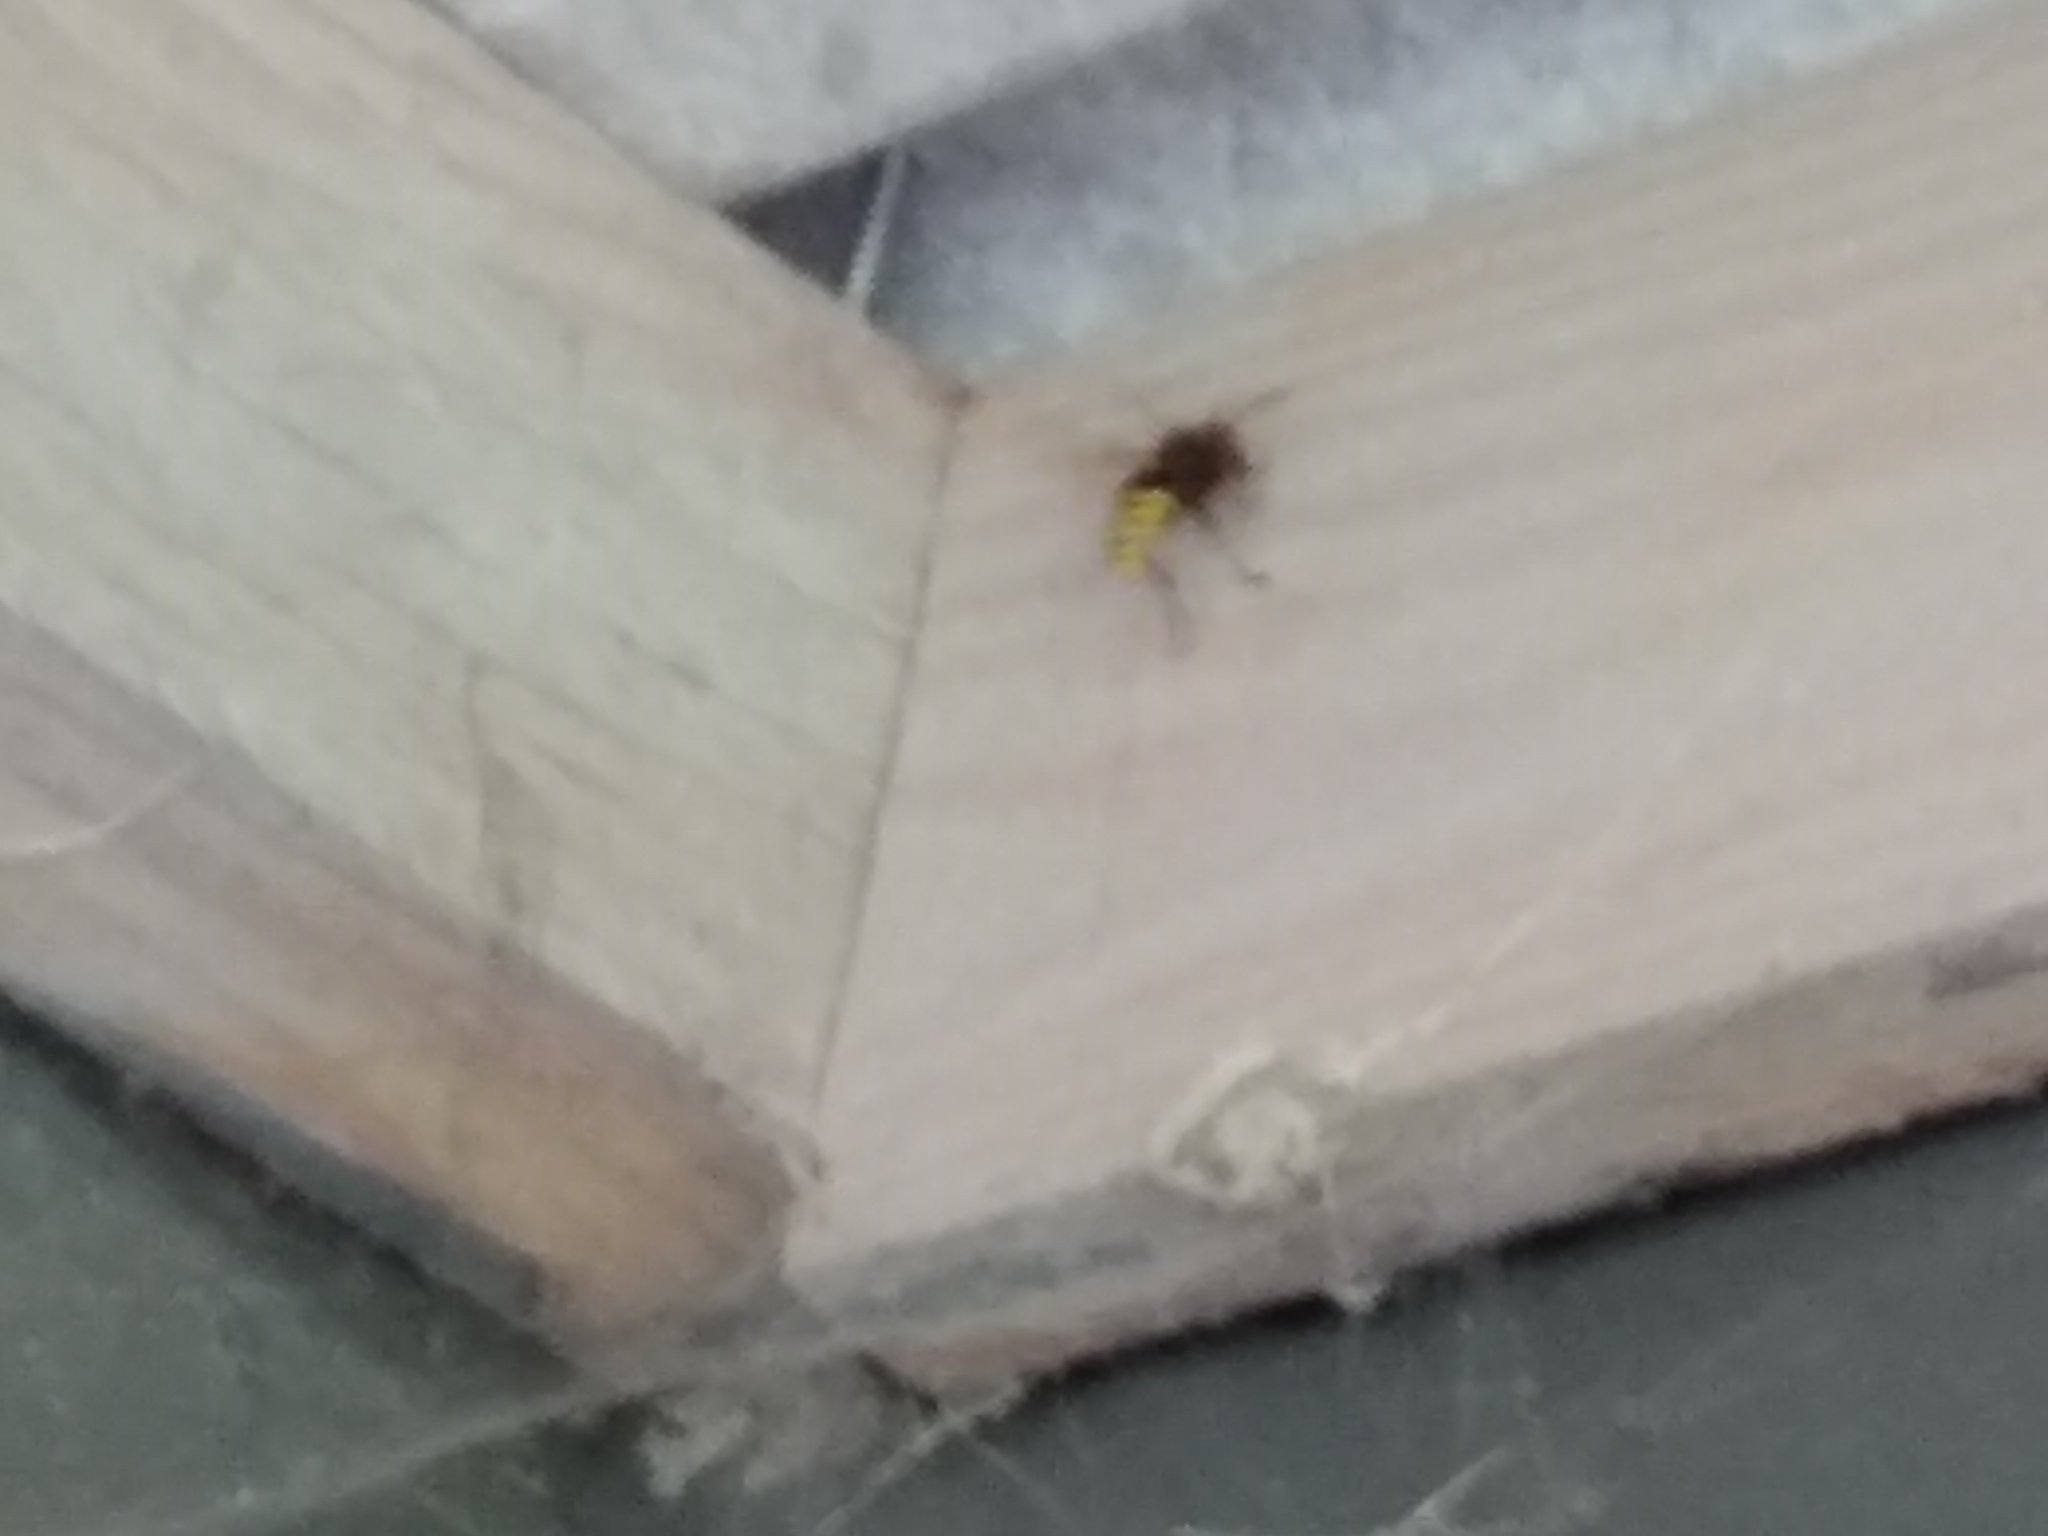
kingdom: Animalia
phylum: Arthropoda
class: Insecta
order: Hymenoptera
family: Vespidae
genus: Vespa
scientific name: Vespa crabro
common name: Hornet
